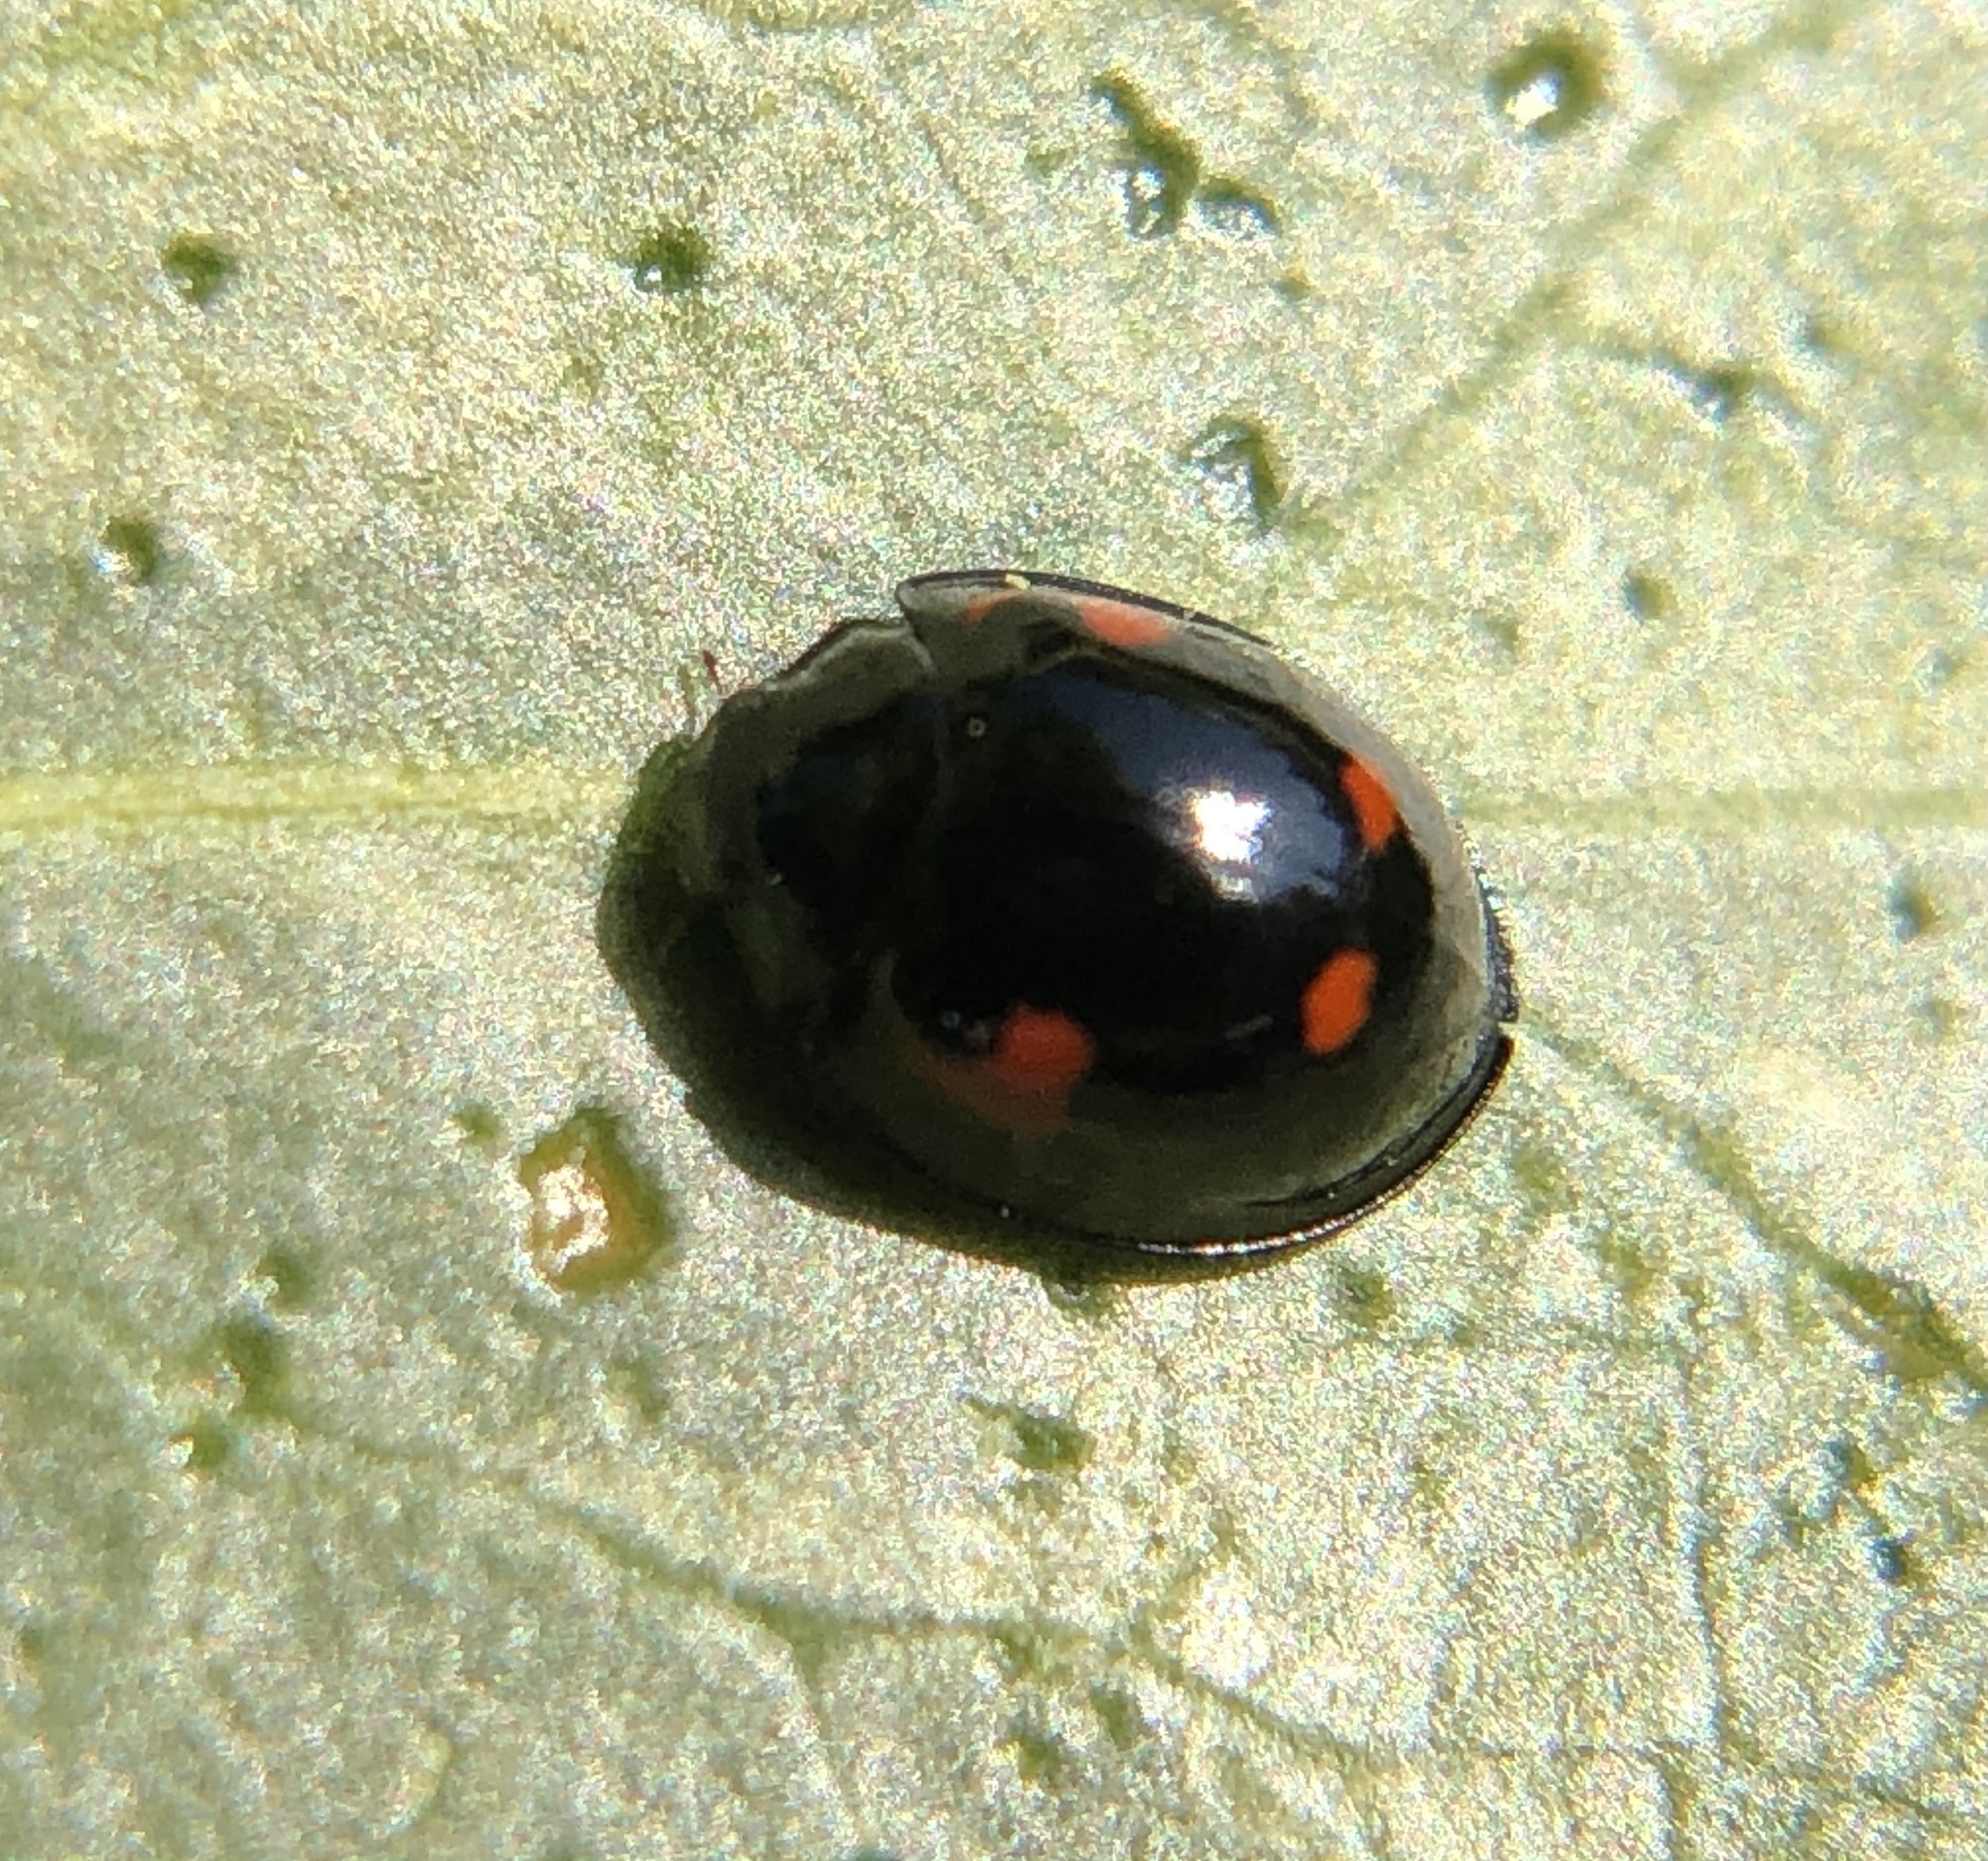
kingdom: Animalia
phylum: Arthropoda
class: Insecta
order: Coleoptera
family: Coccinellidae
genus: Brumus
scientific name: Brumus quadripustulatus
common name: Ladybird beetle
